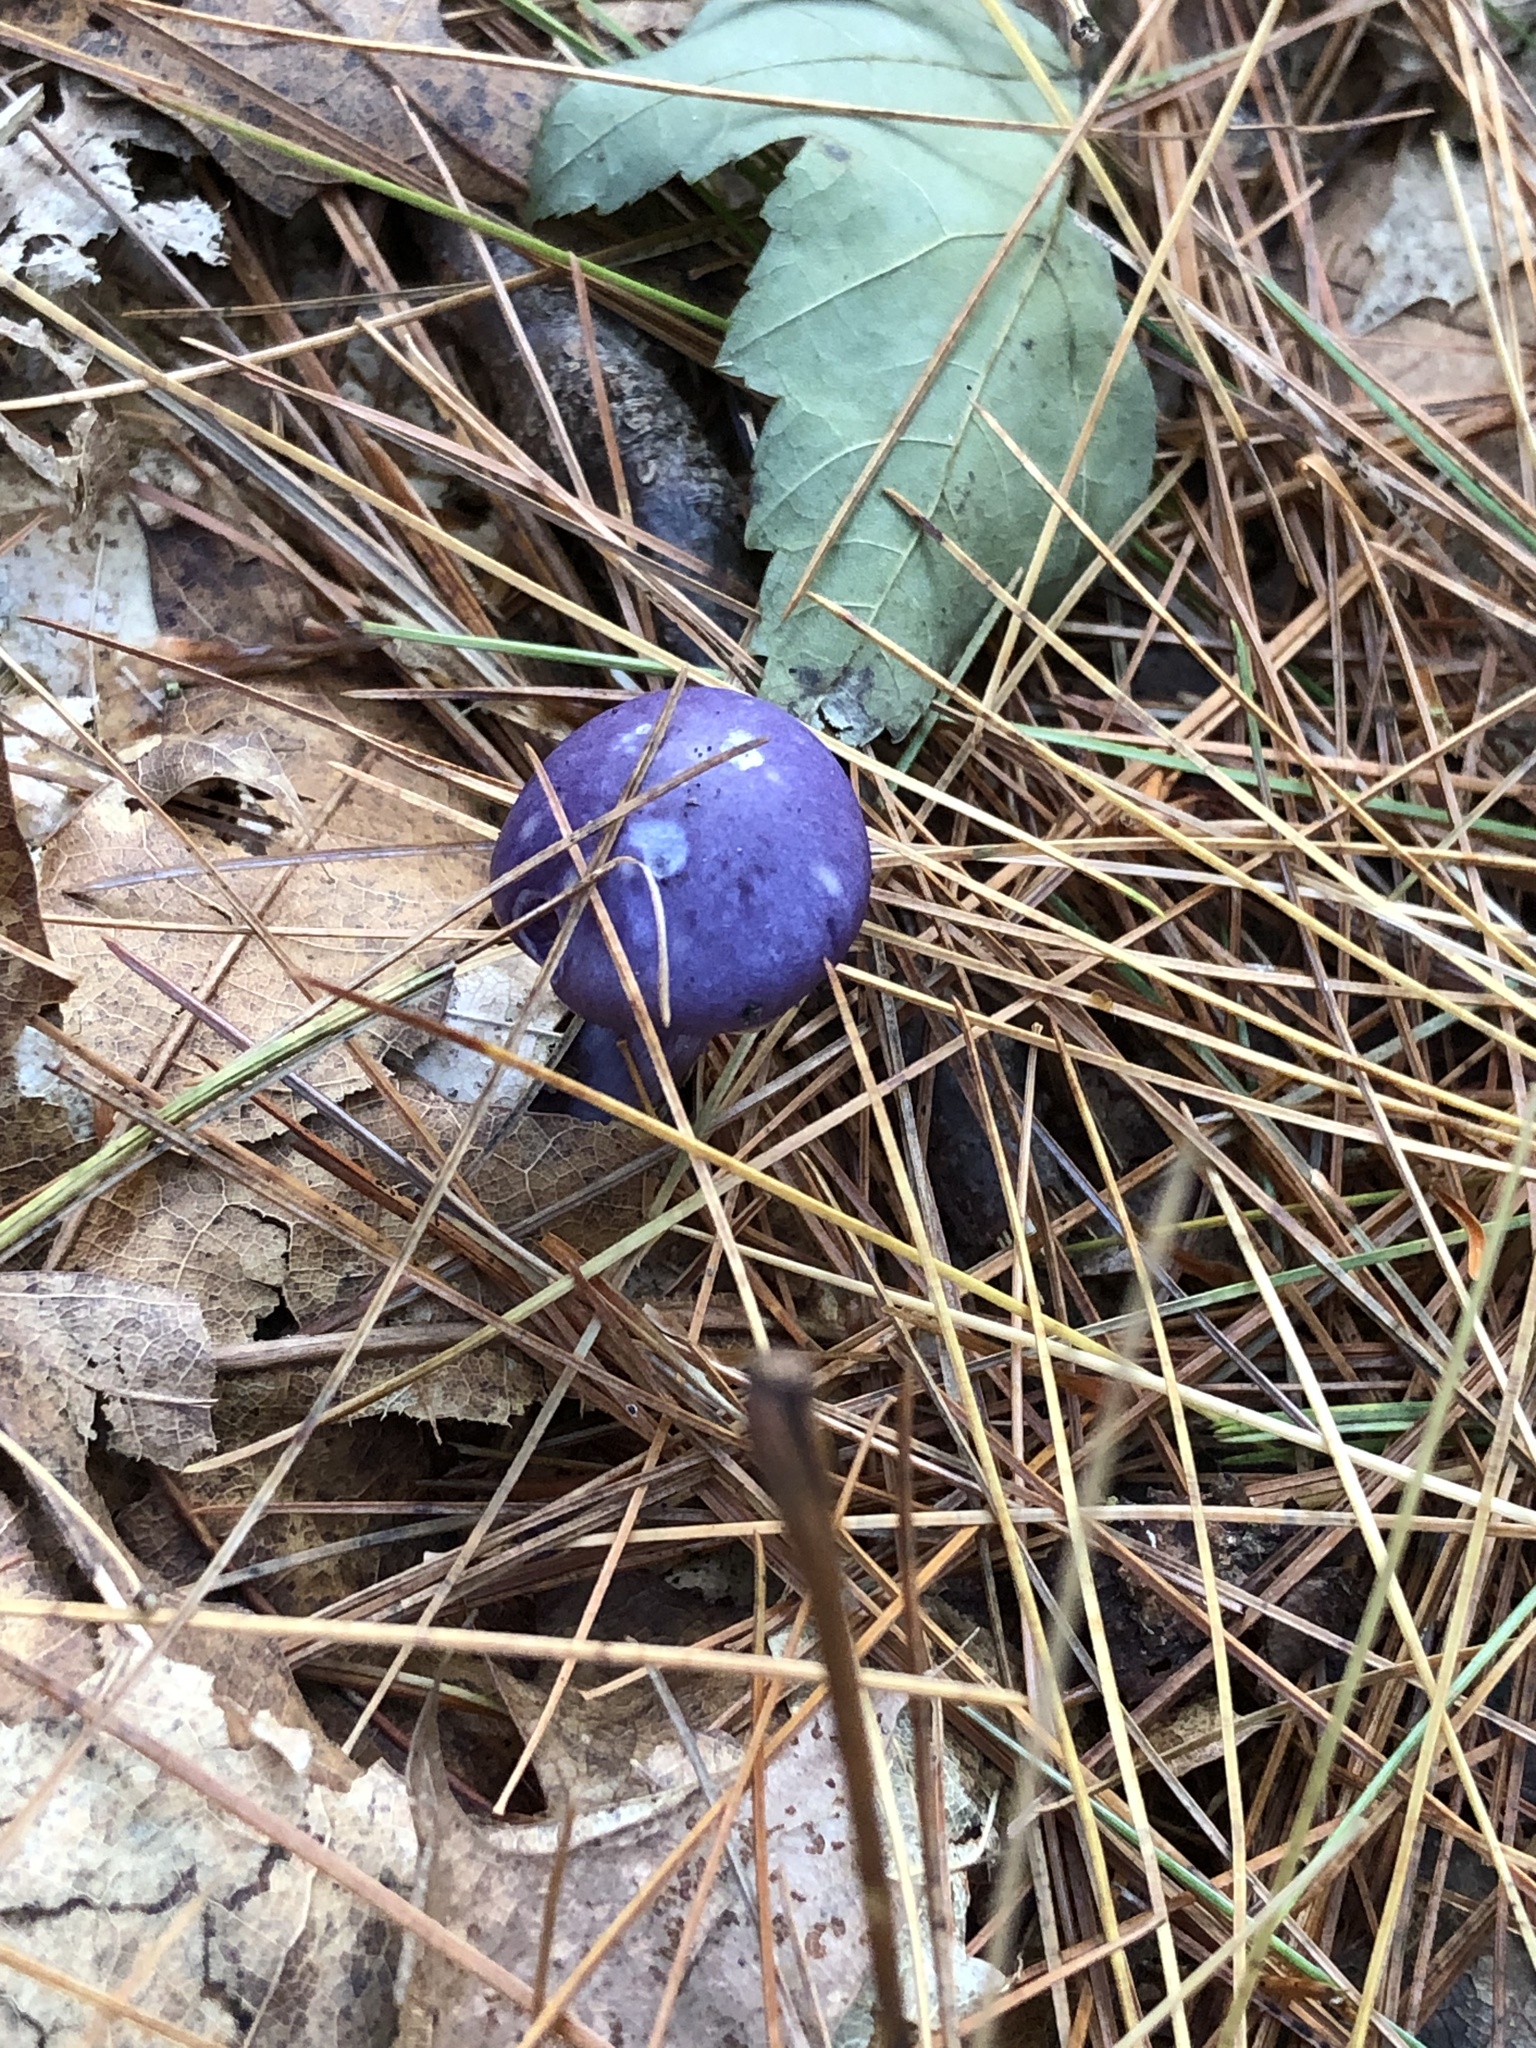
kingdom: Fungi
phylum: Basidiomycota
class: Agaricomycetes
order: Agaricales
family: Cortinariaceae
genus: Cortinarius
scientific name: Cortinarius iodes
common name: Viscid violet cort
